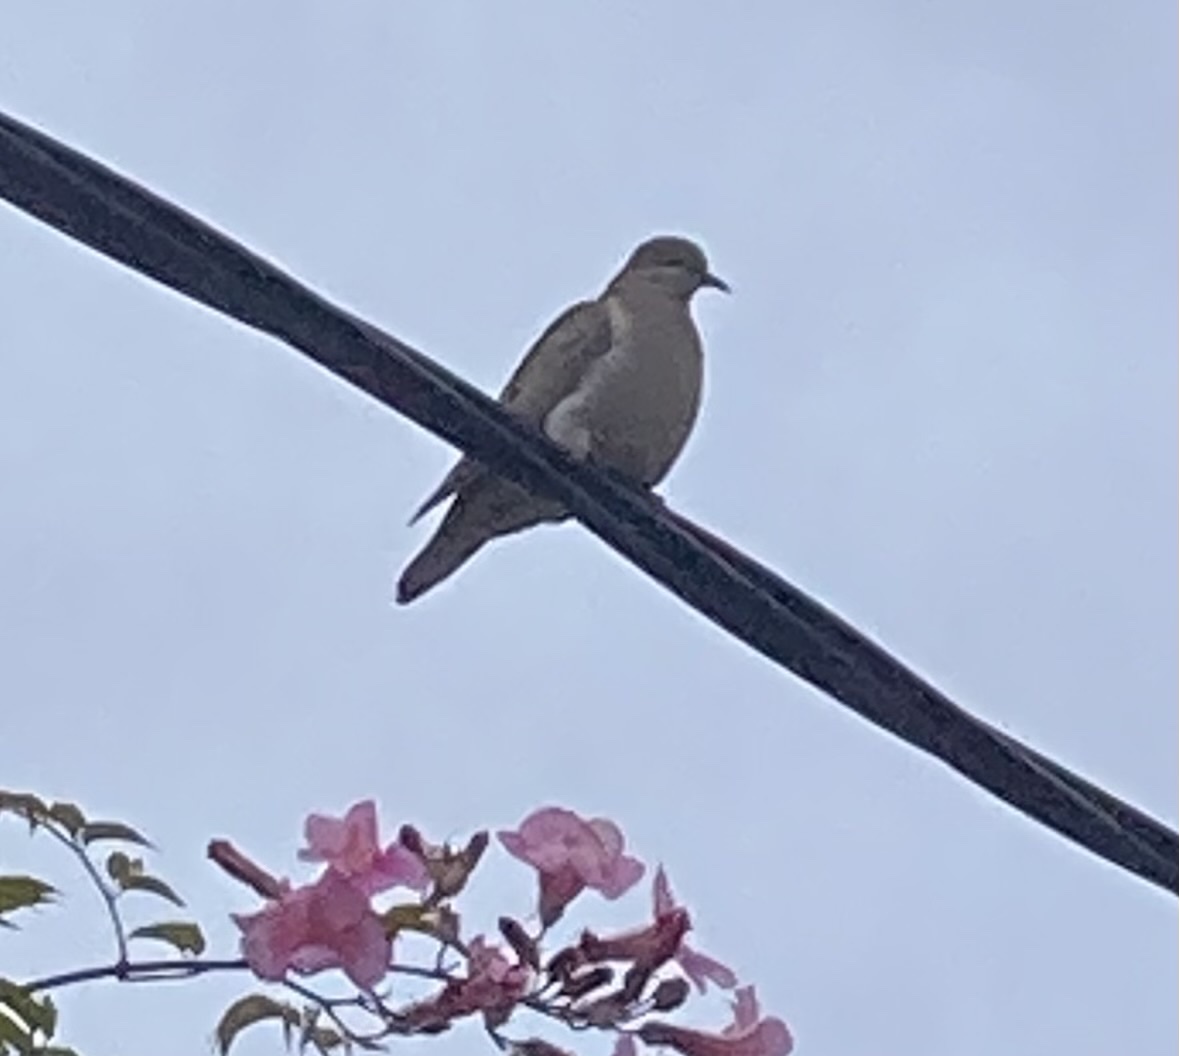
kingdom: Animalia
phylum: Chordata
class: Aves
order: Columbiformes
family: Columbidae
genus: Zenaida
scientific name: Zenaida auriculata
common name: Eared dove
